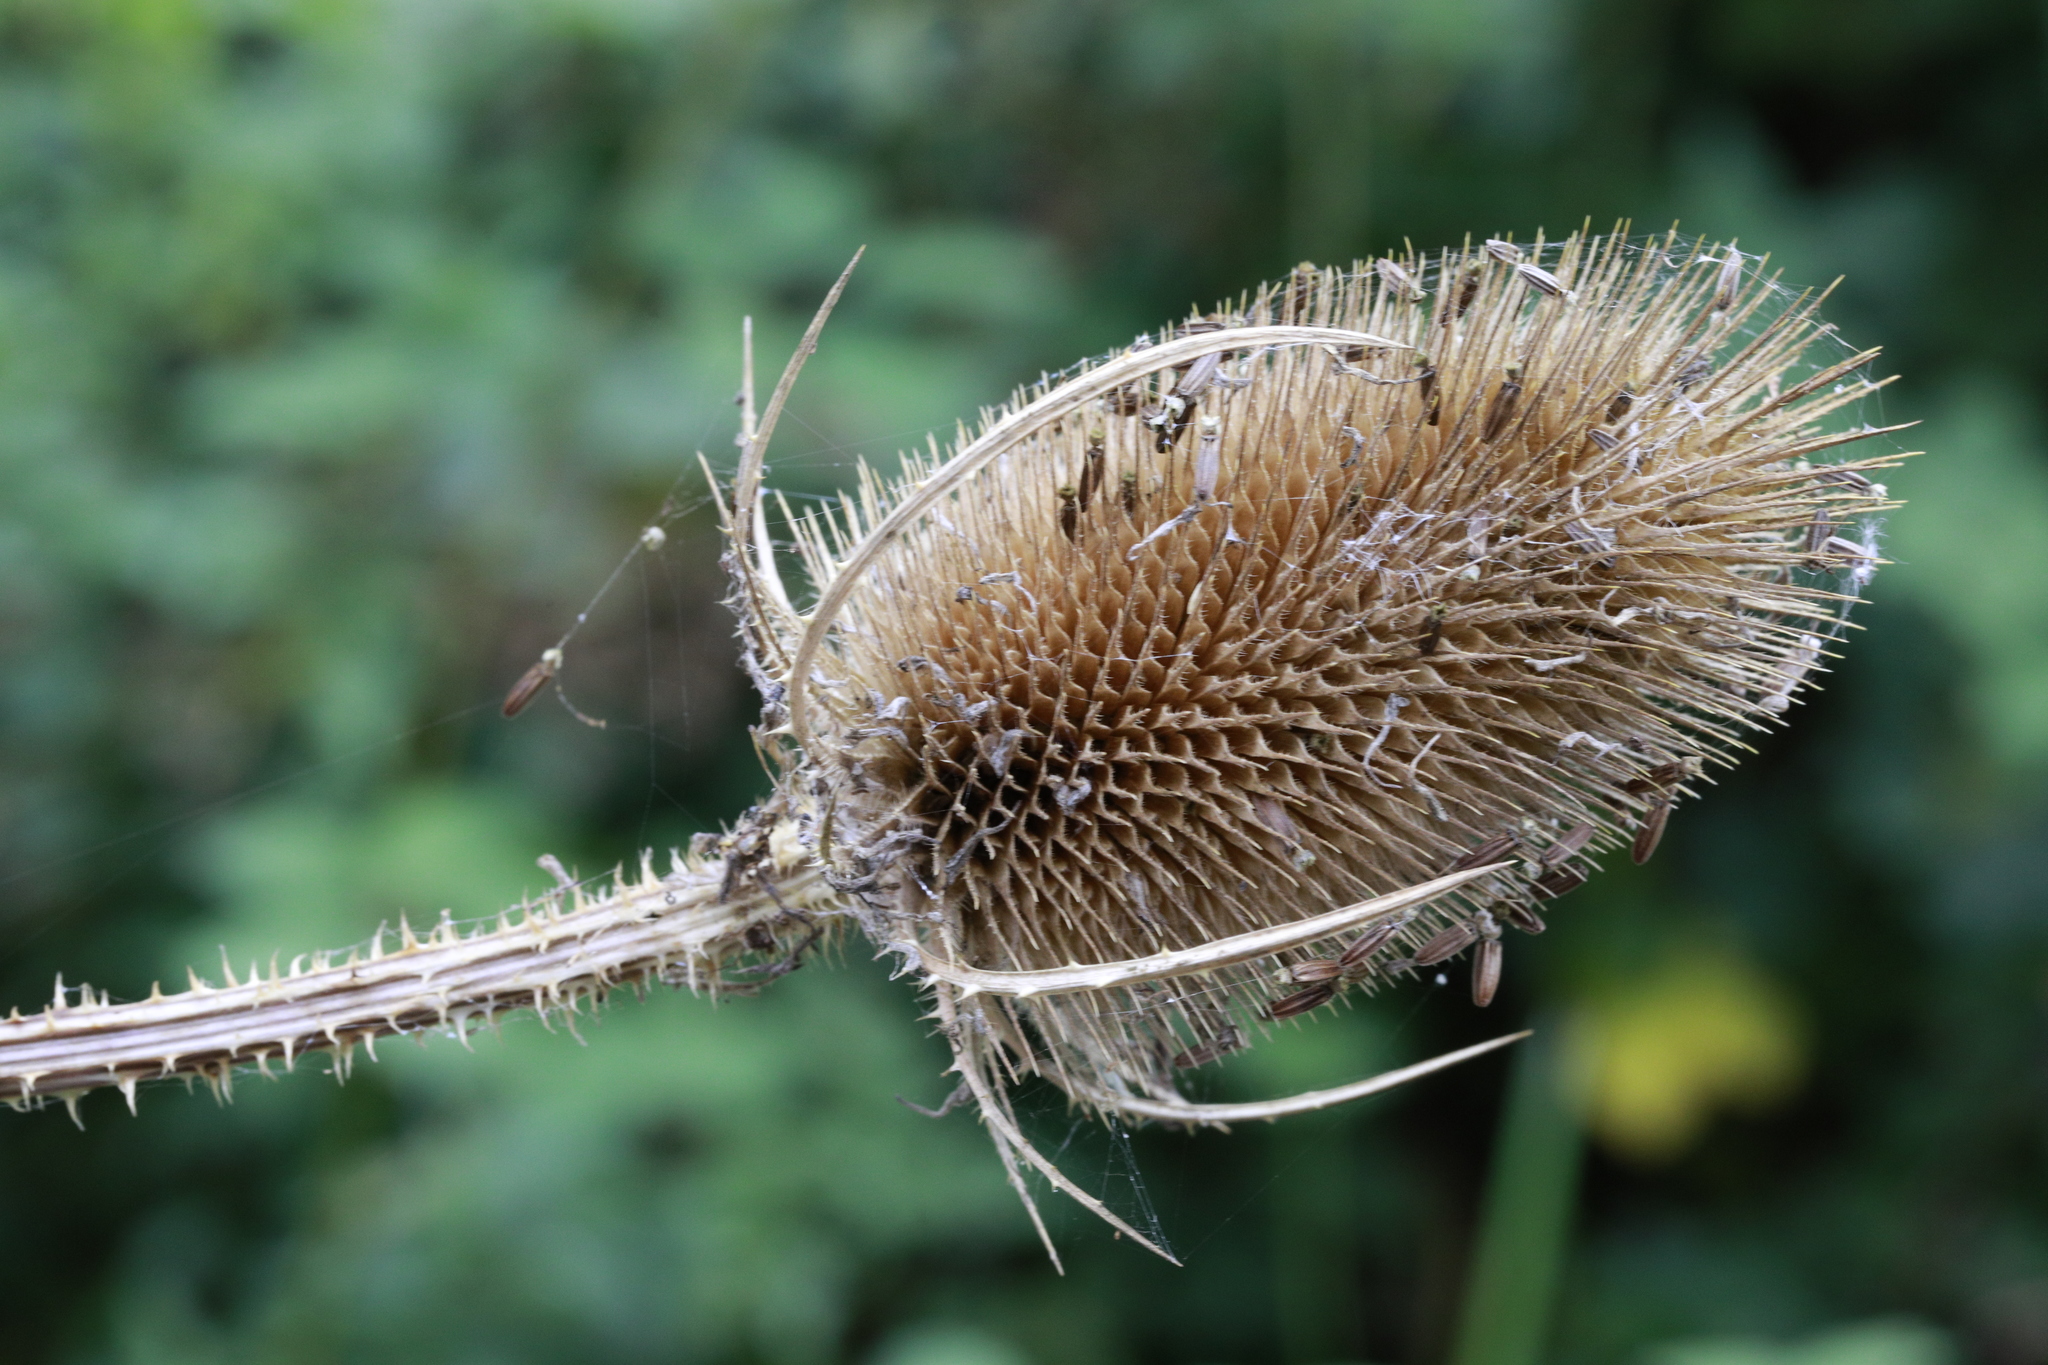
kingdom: Plantae
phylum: Tracheophyta
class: Magnoliopsida
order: Dipsacales
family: Caprifoliaceae
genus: Dipsacus
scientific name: Dipsacus fullonum
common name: Teasel
